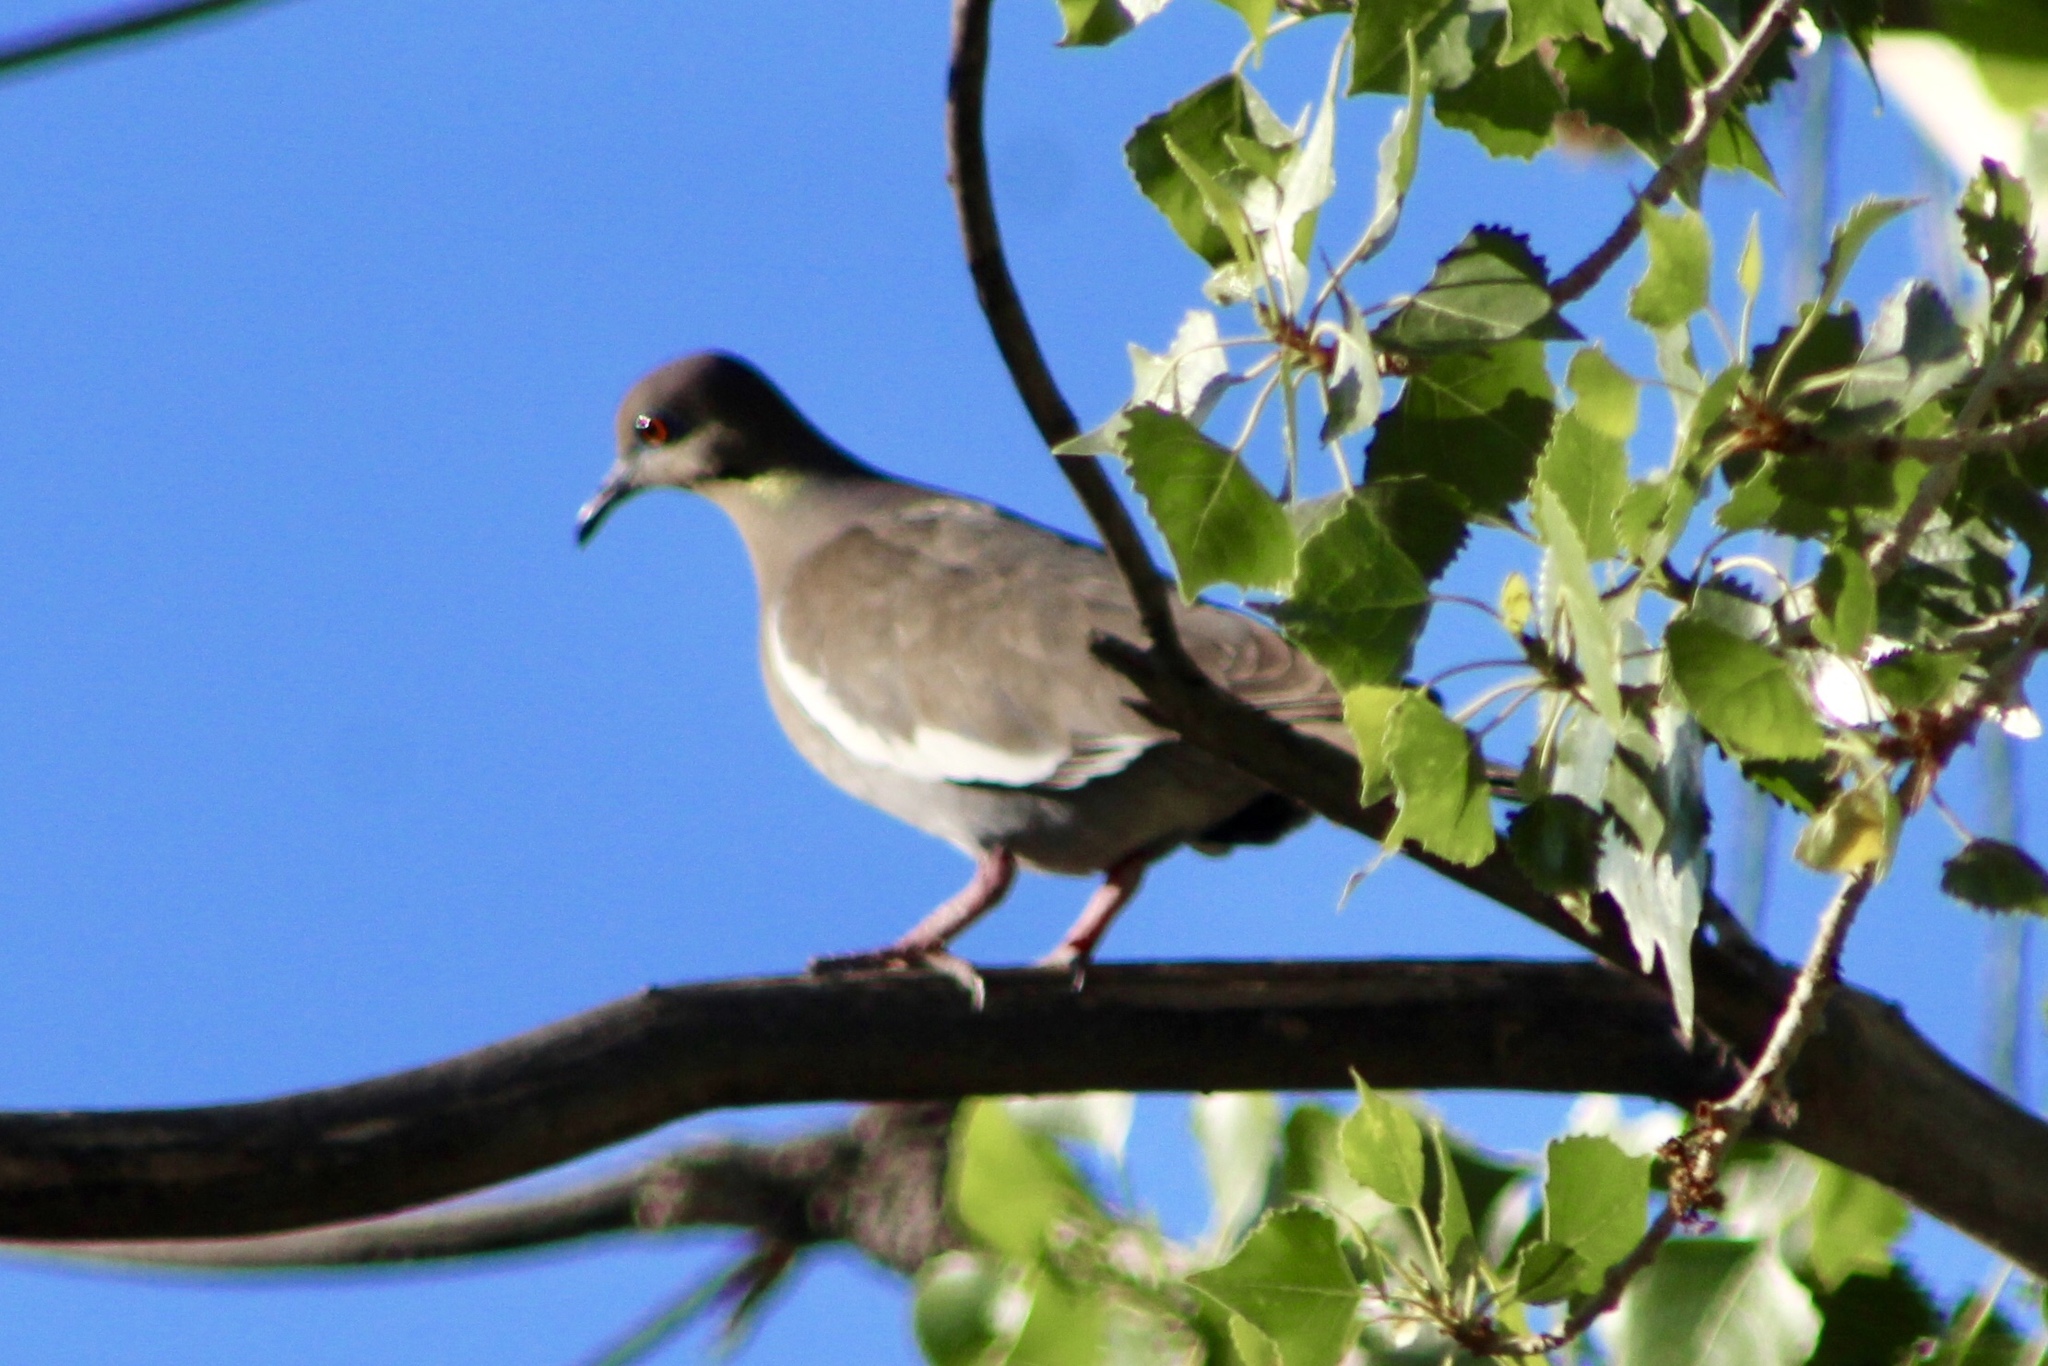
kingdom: Animalia
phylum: Chordata
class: Aves
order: Columbiformes
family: Columbidae
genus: Zenaida
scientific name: Zenaida asiatica
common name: White-winged dove
